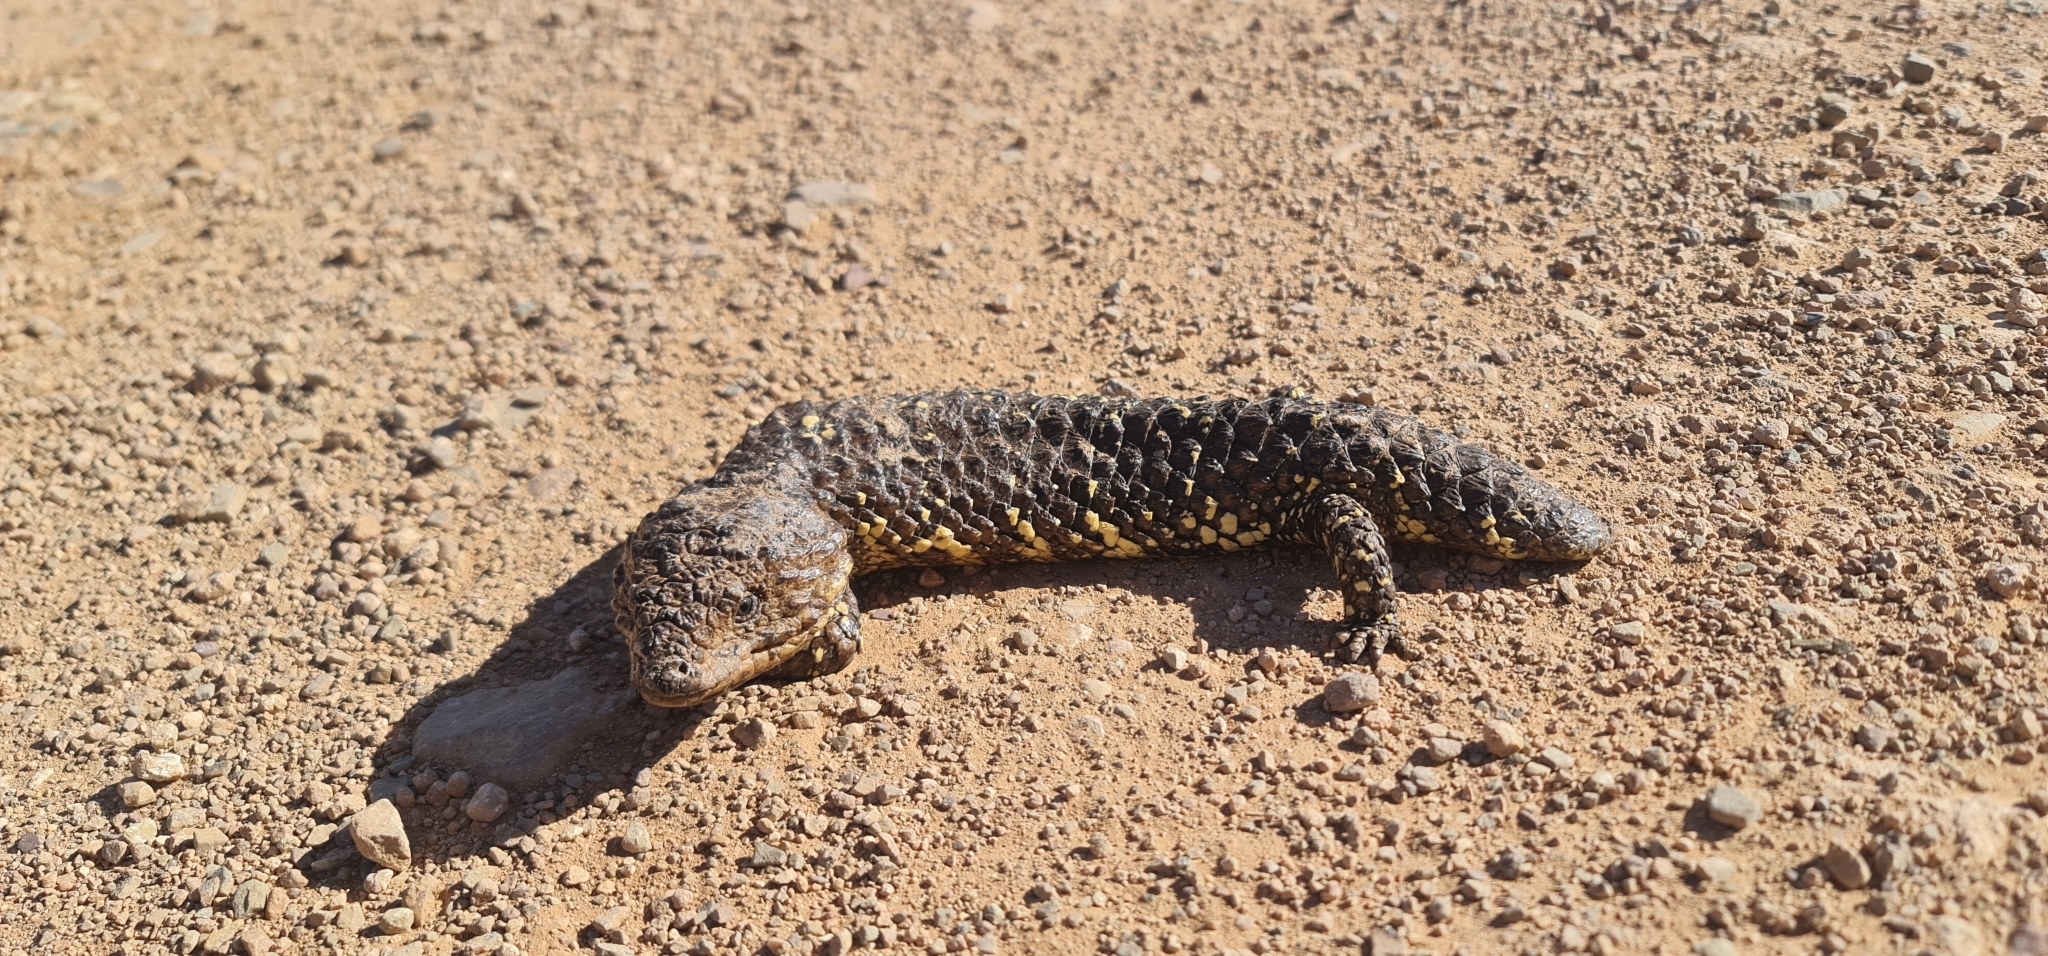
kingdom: Animalia
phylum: Chordata
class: Squamata
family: Scincidae
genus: Tiliqua
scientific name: Tiliqua rugosa
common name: Pinecone lizard
